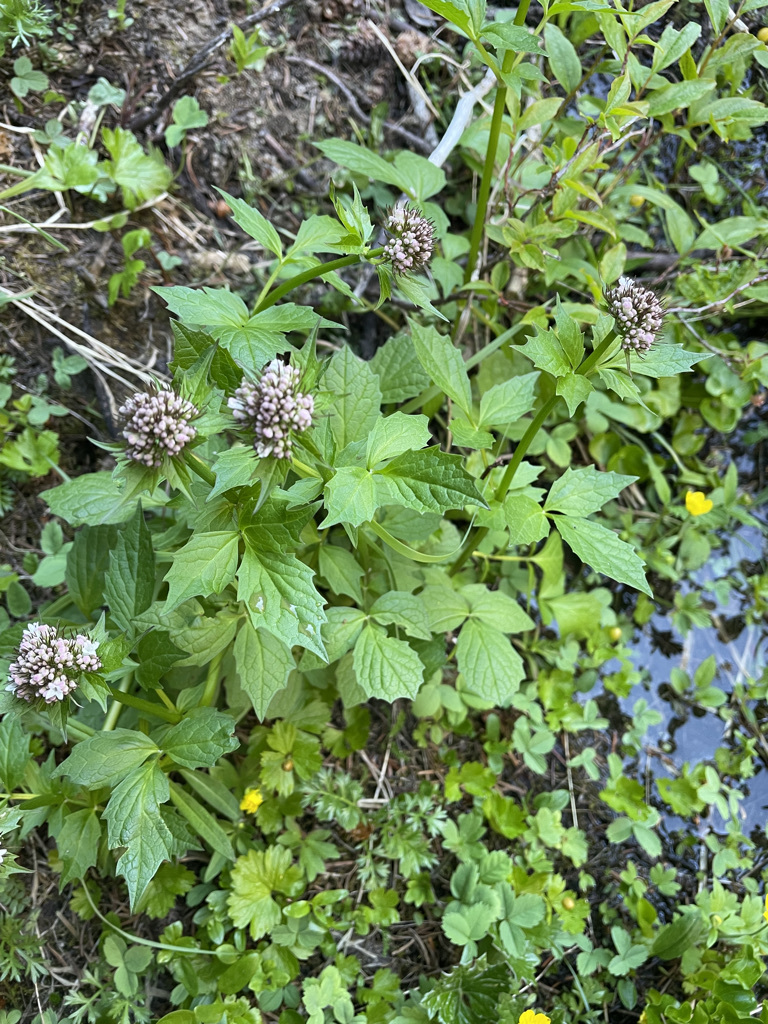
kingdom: Plantae
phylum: Tracheophyta
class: Magnoliopsida
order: Dipsacales
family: Caprifoliaceae
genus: Valeriana
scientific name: Valeriana sitchensis
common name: Pacific valerian
